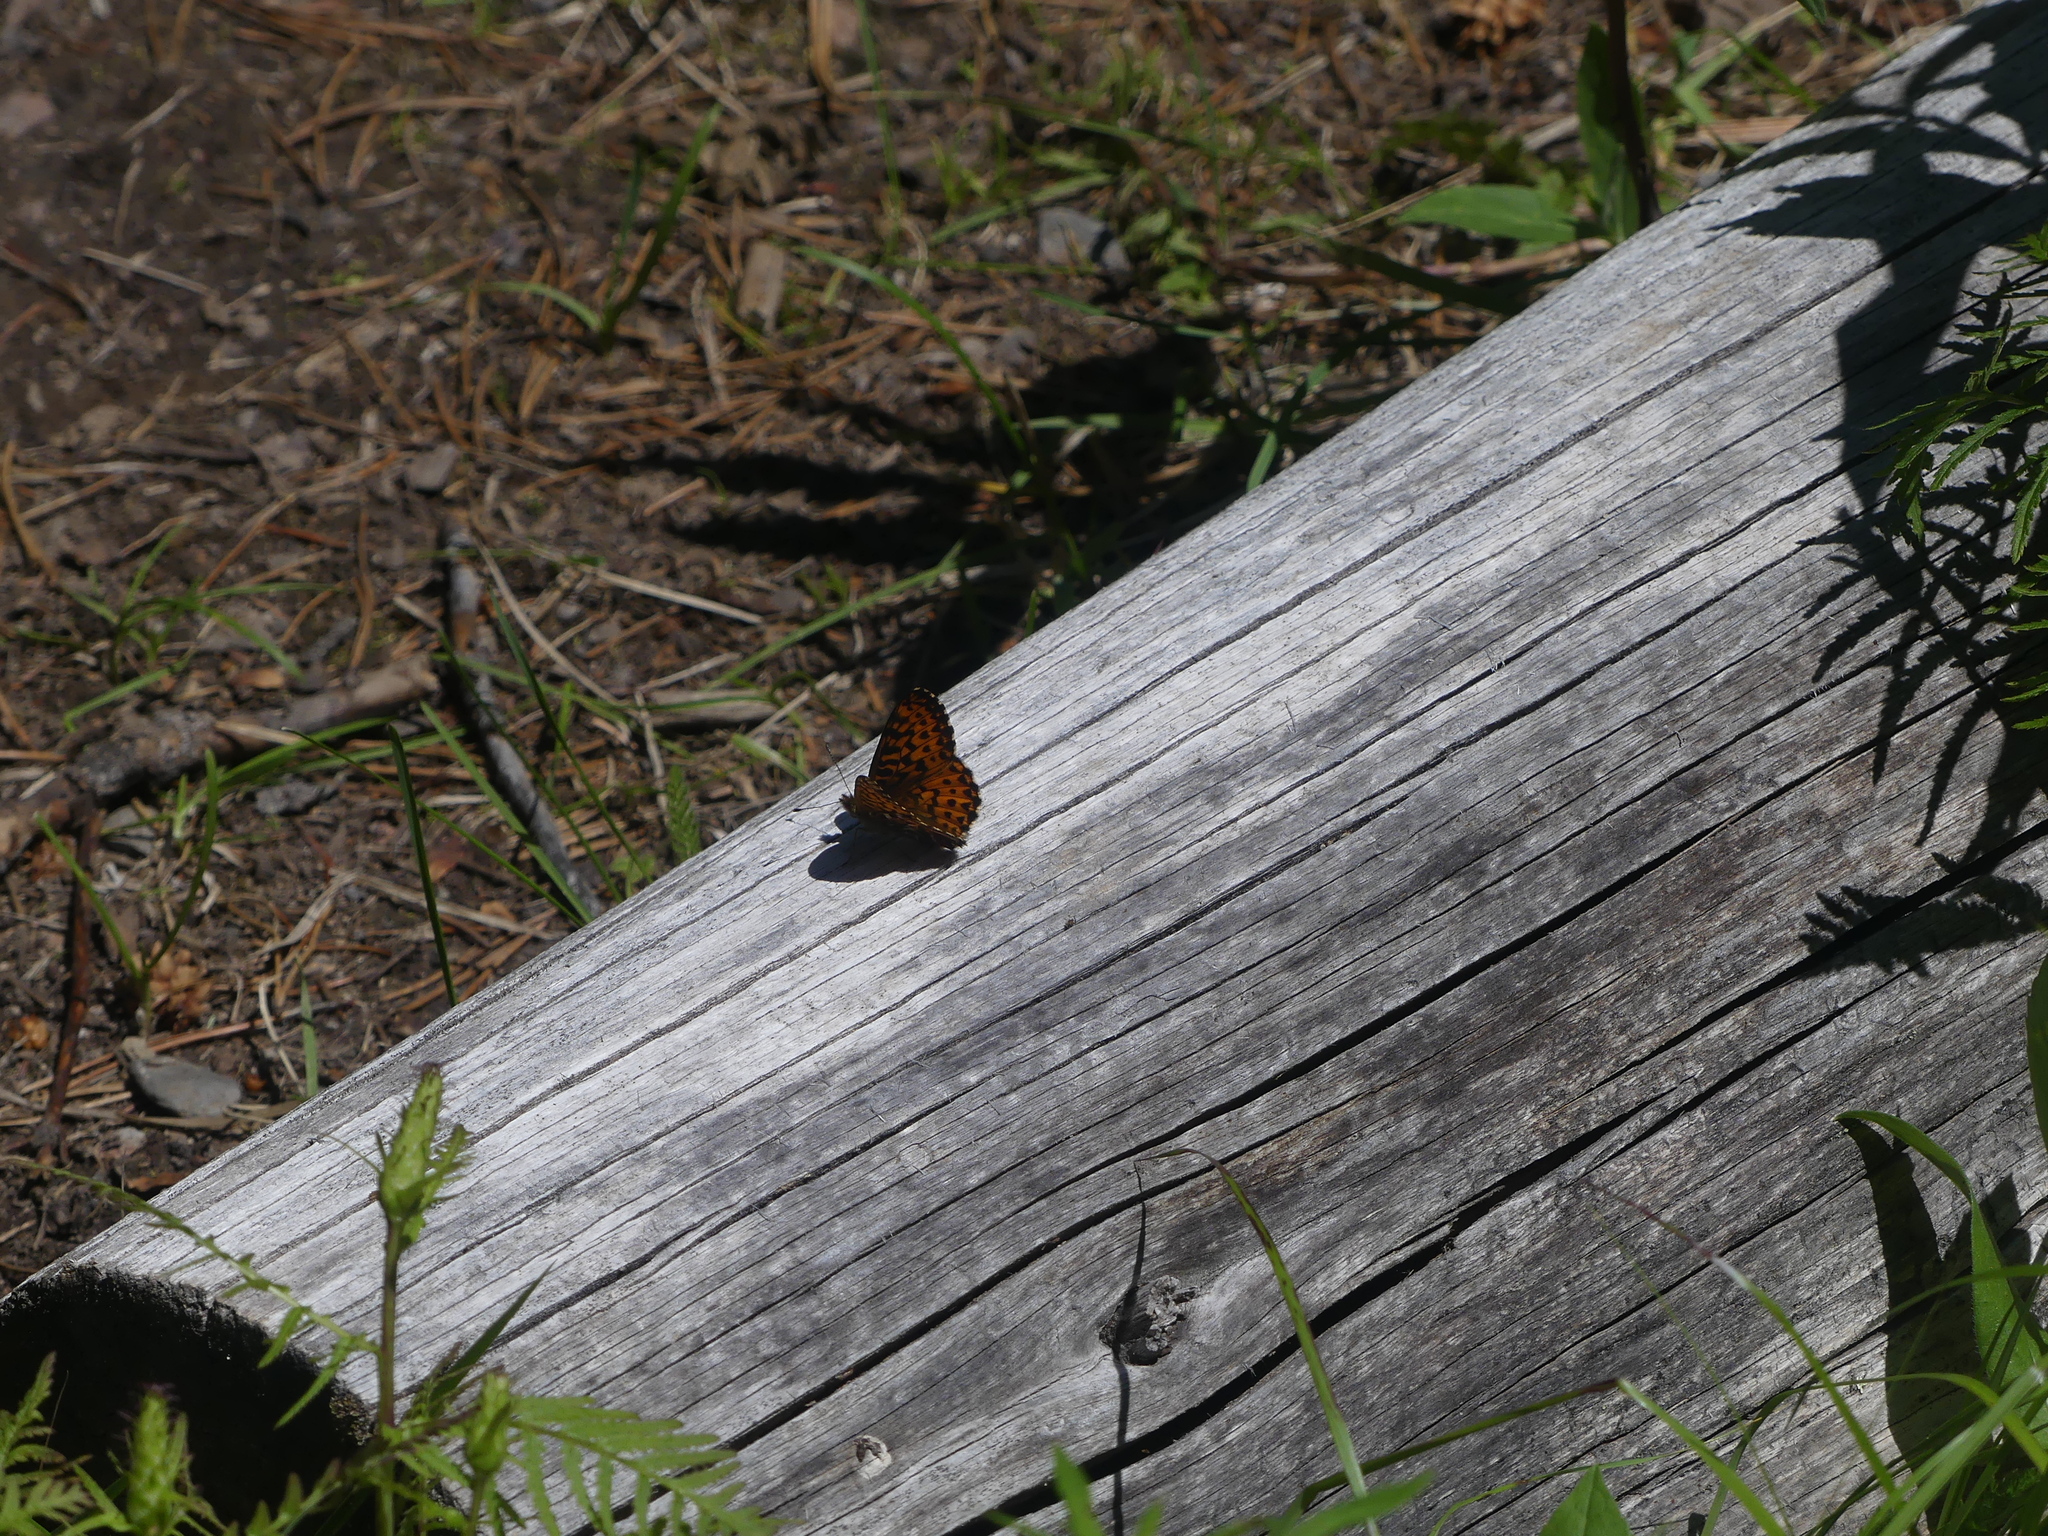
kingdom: Animalia
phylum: Arthropoda
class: Insecta
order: Lepidoptera
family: Nymphalidae
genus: Boloria
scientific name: Boloria chariclea
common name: Arctic fritillary
